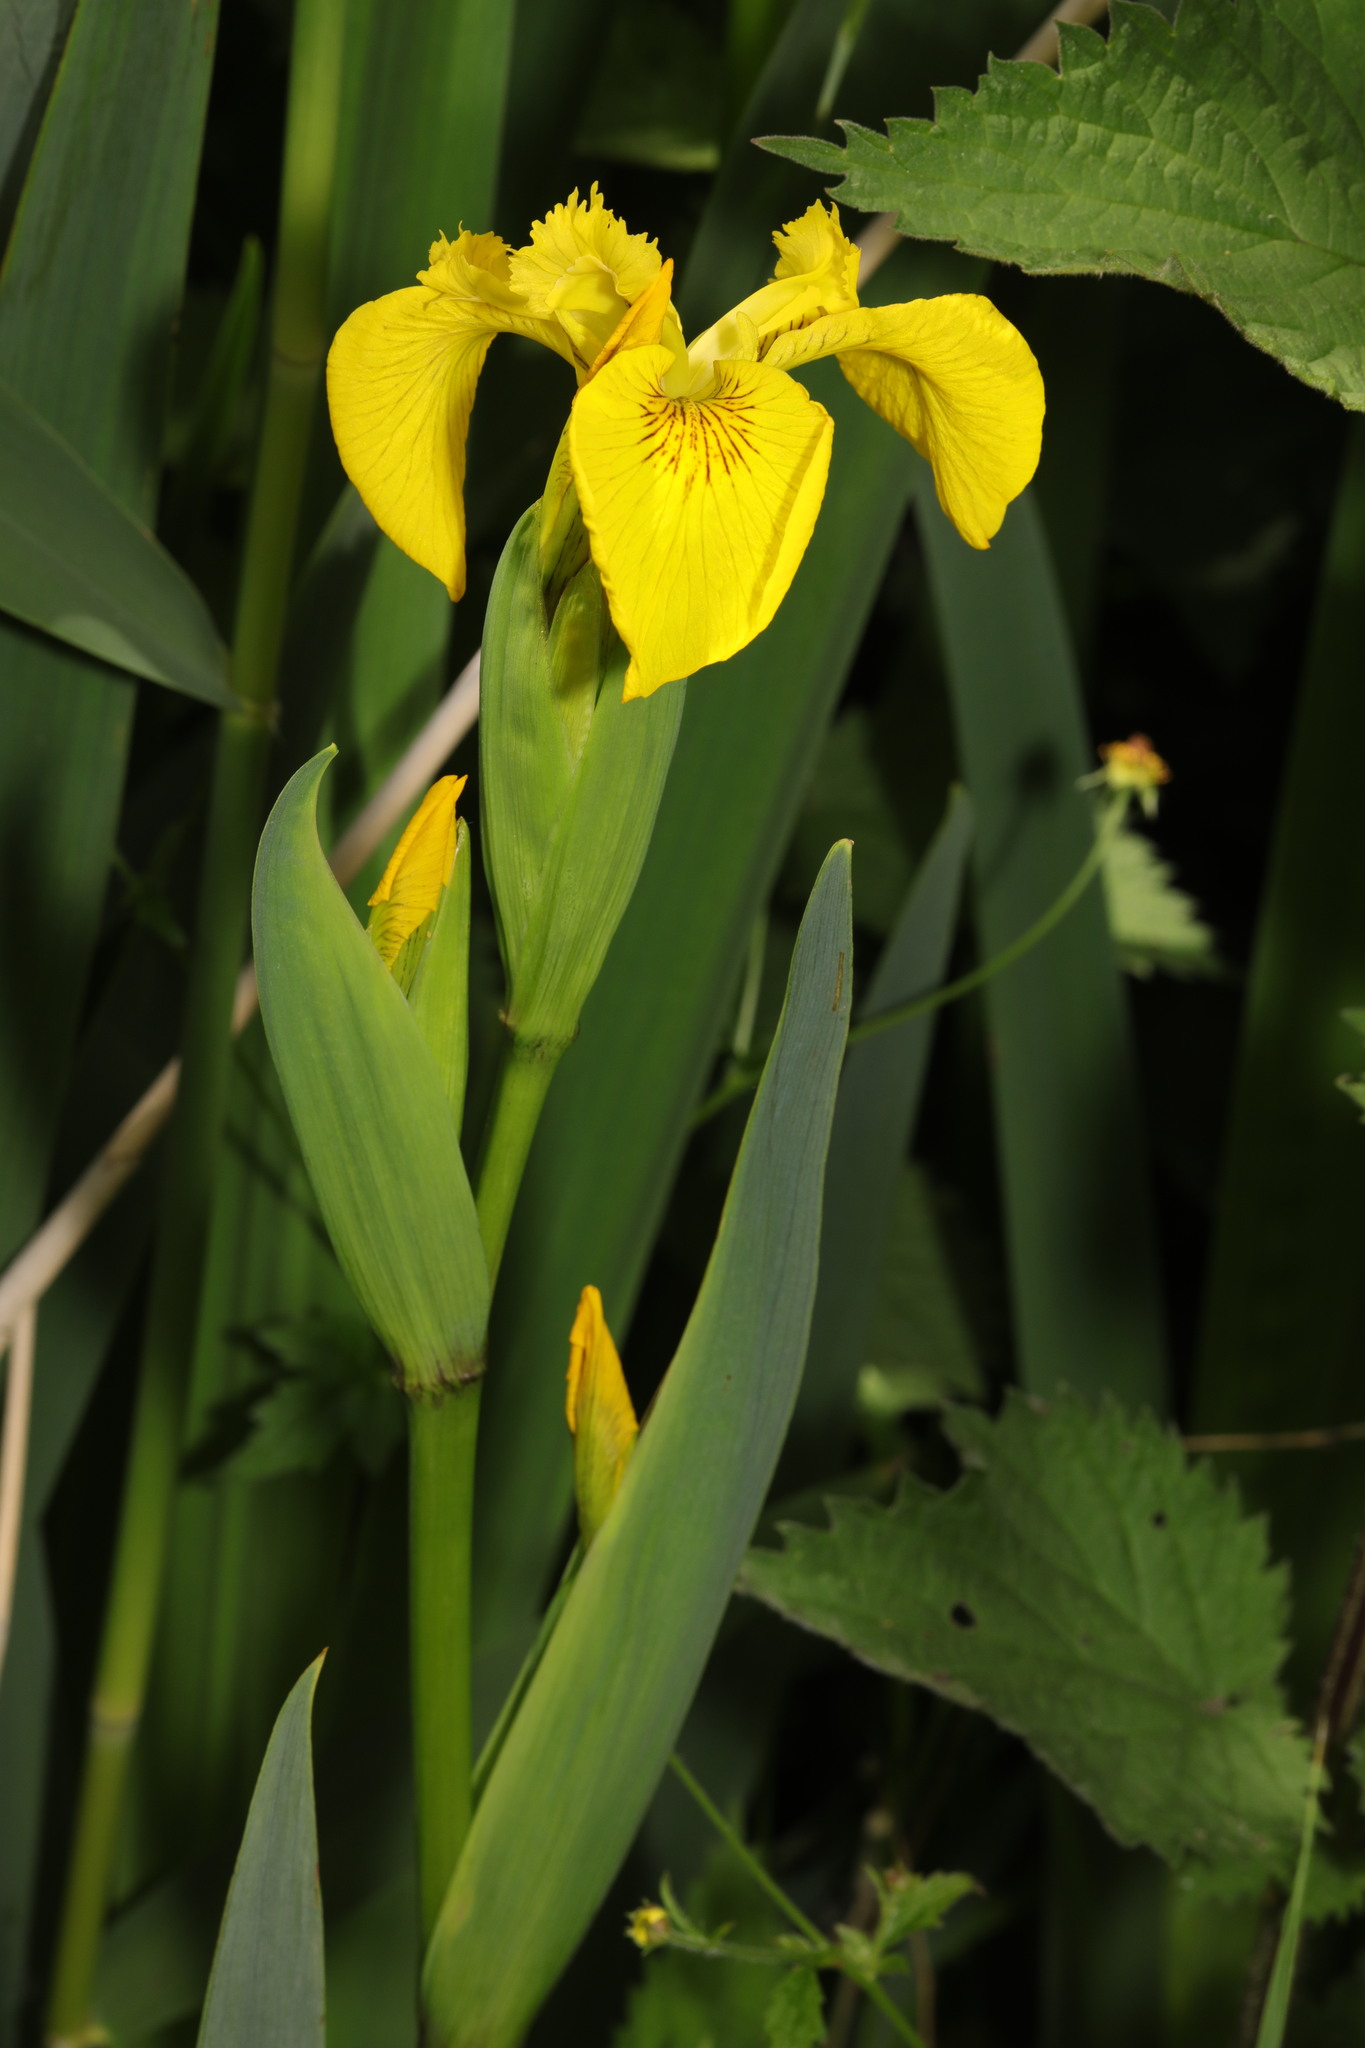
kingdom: Plantae
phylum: Tracheophyta
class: Liliopsida
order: Asparagales
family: Iridaceae
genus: Iris
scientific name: Iris pseudacorus
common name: Yellow flag
